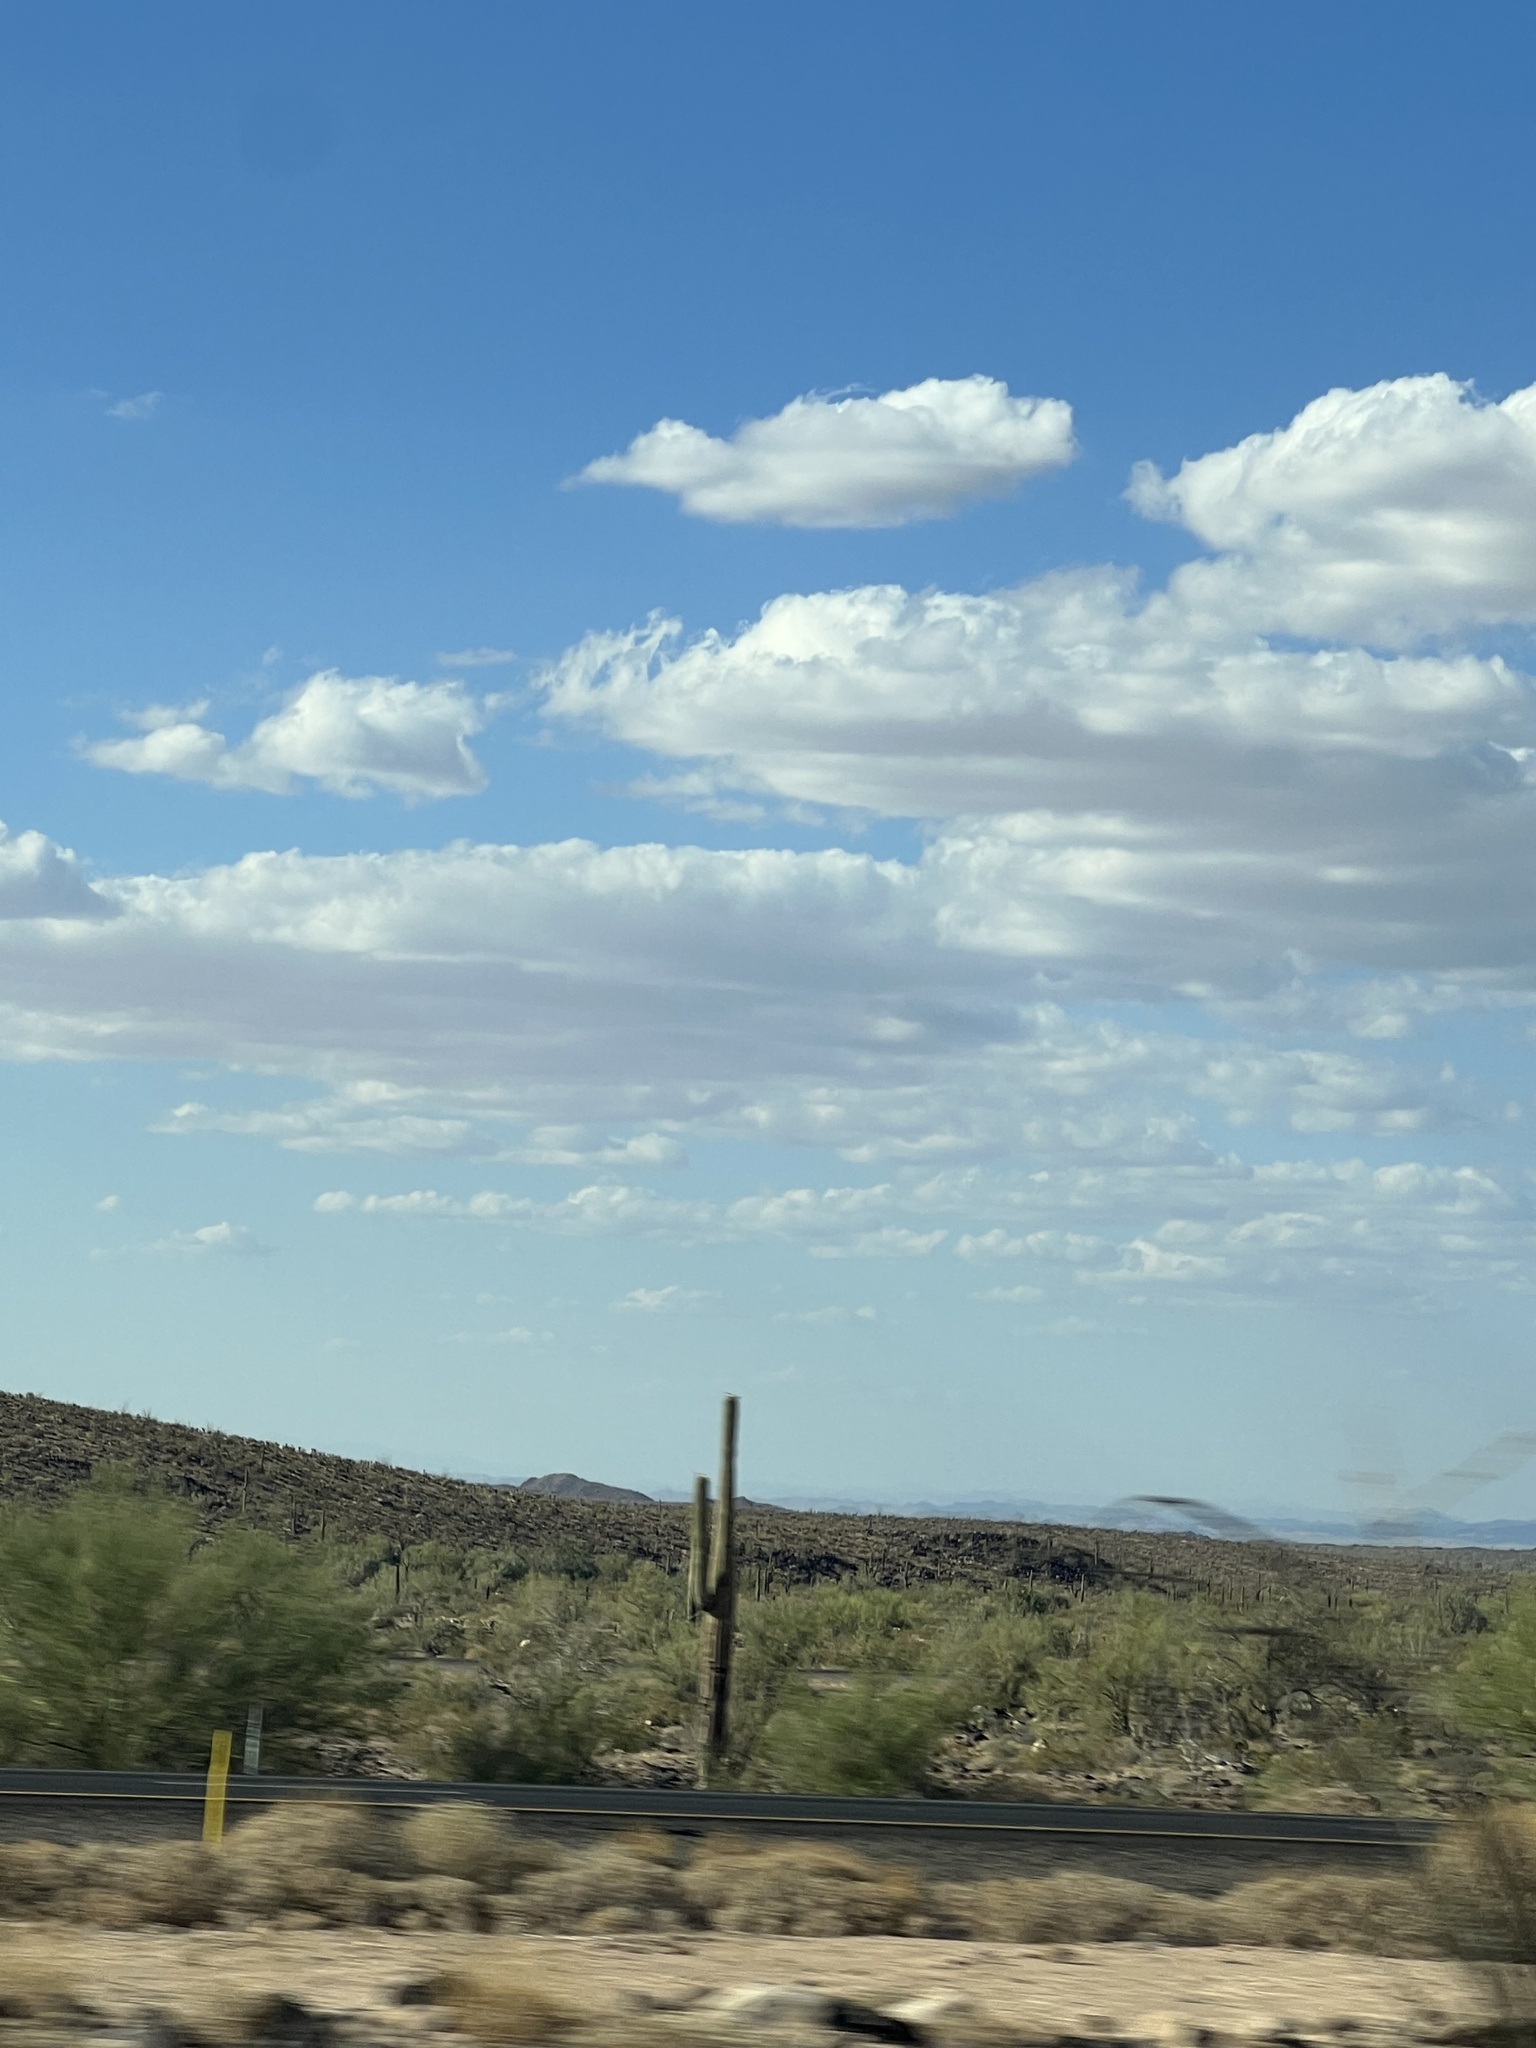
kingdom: Plantae
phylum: Tracheophyta
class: Magnoliopsida
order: Caryophyllales
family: Cactaceae
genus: Carnegiea
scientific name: Carnegiea gigantea
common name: Saguaro
